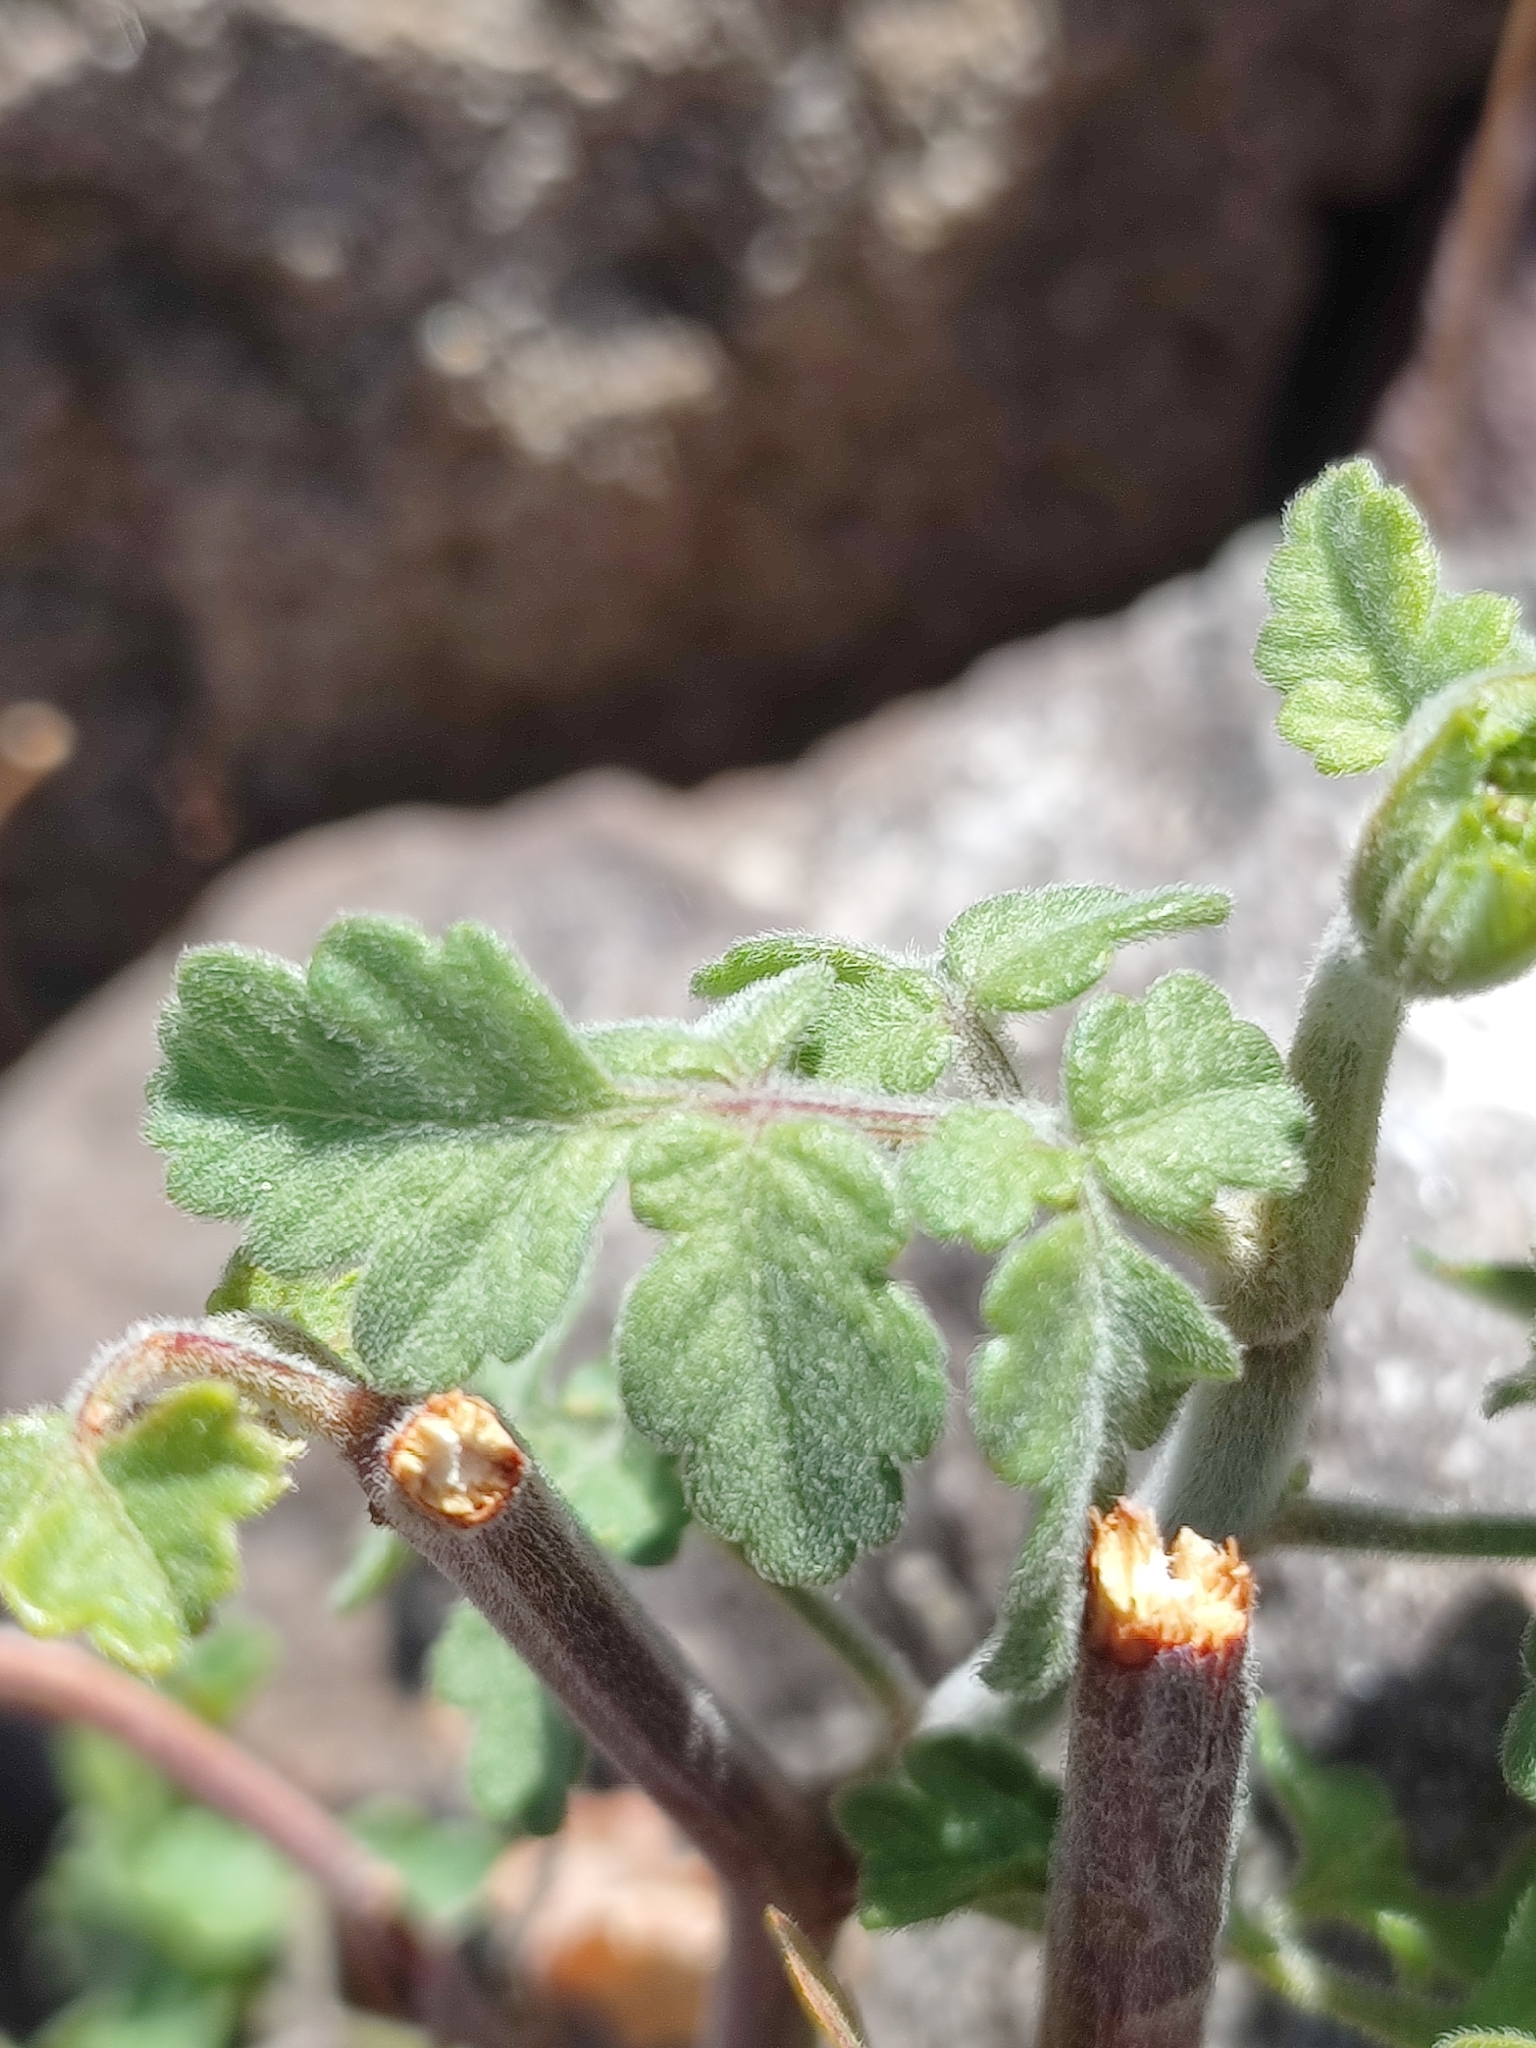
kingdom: Plantae
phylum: Tracheophyta
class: Magnoliopsida
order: Sapindales
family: Sapindaceae
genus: Serjania
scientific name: Serjania tortuosa
